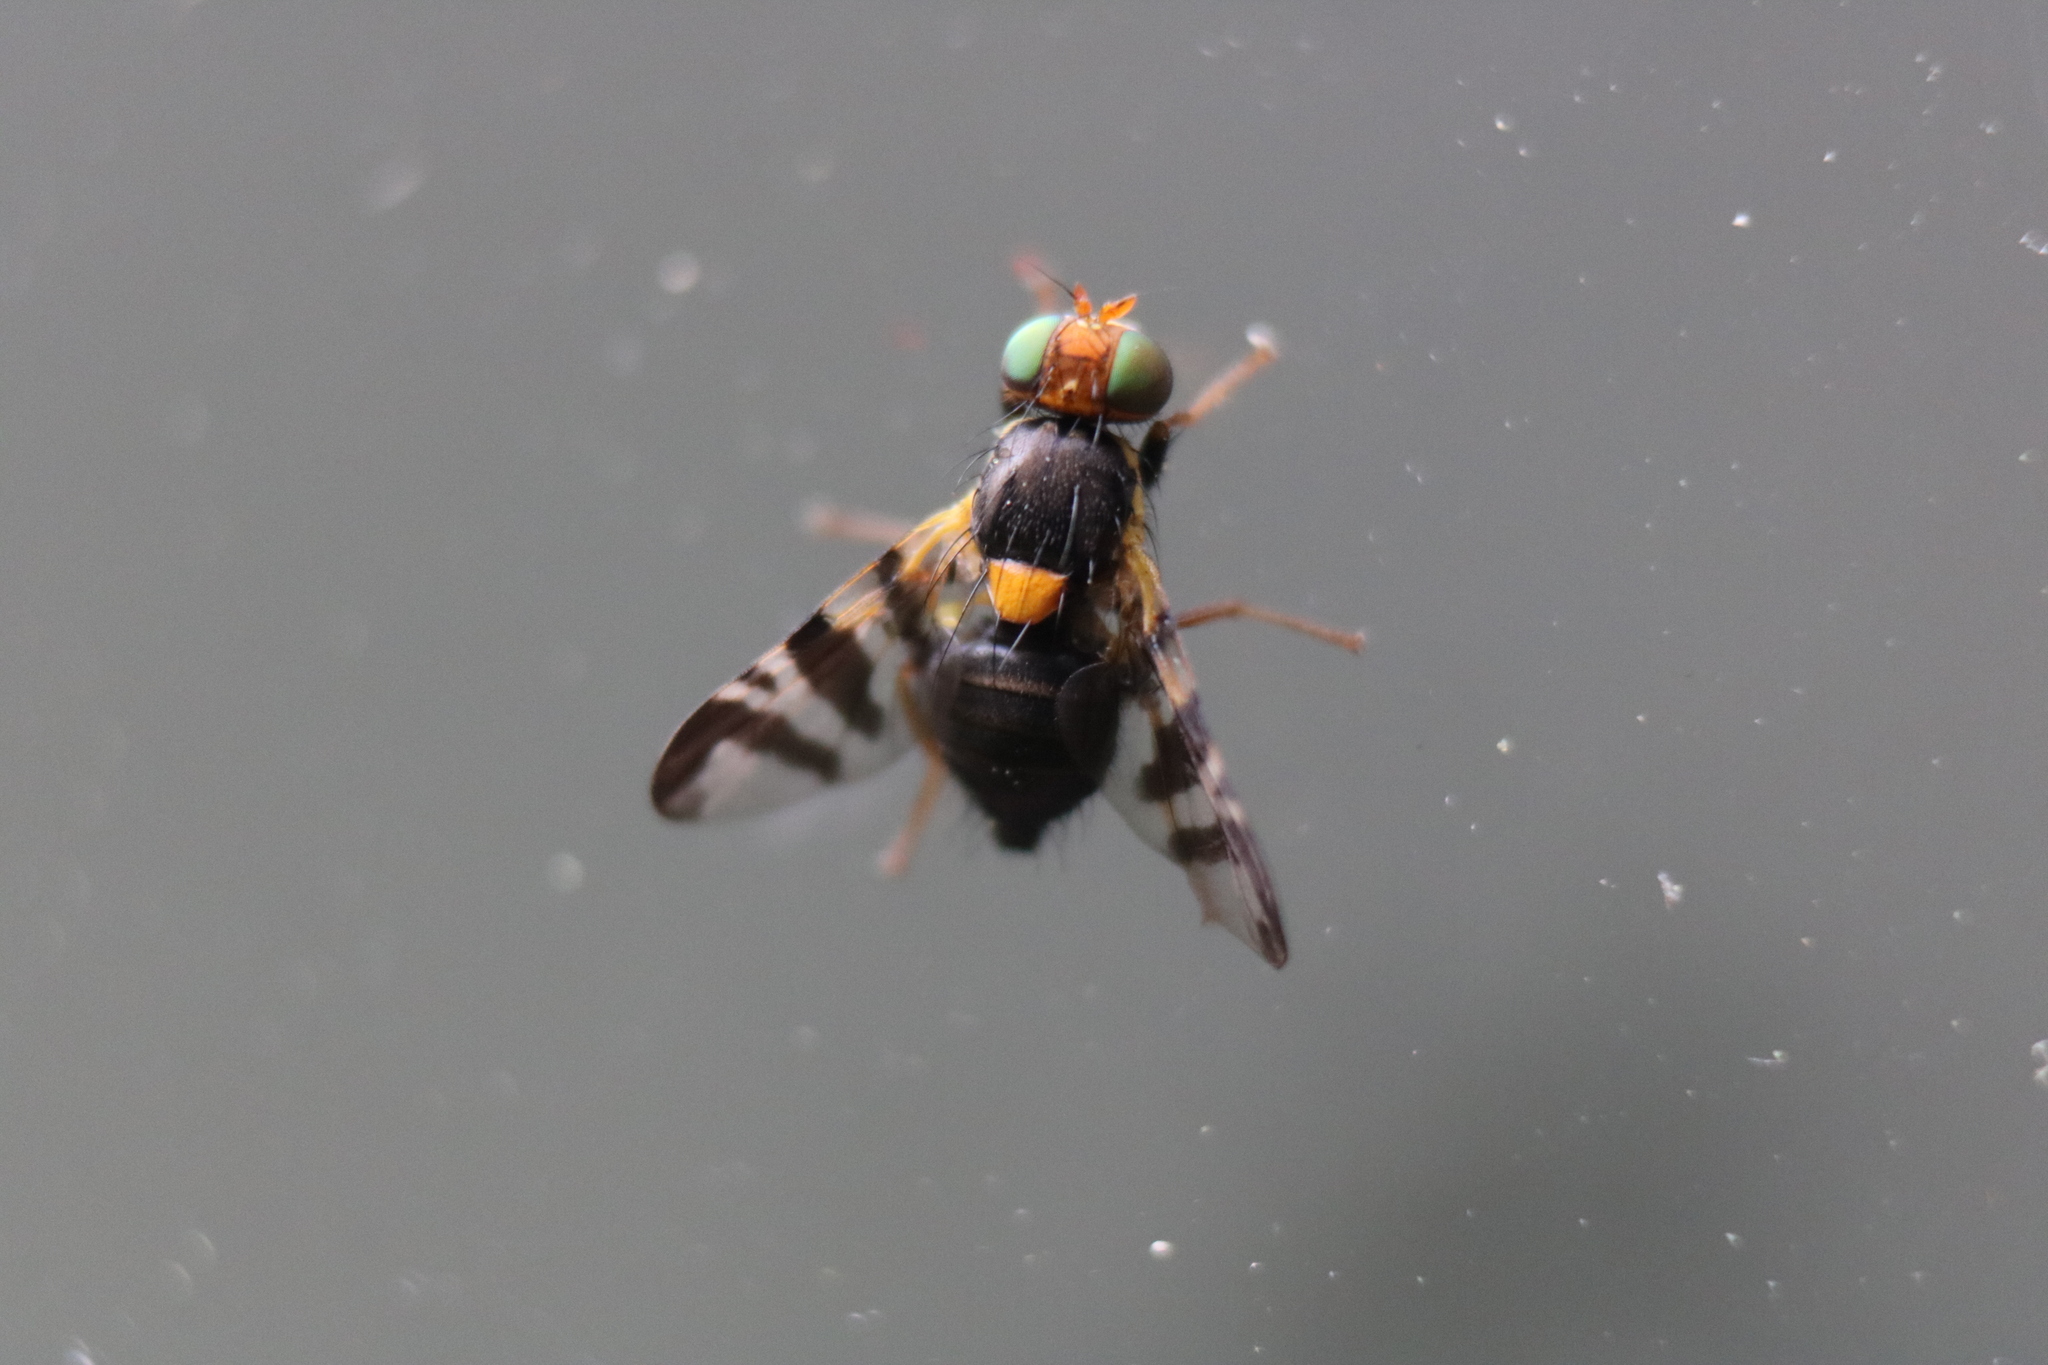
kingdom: Animalia
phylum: Arthropoda
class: Insecta
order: Diptera
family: Tephritidae
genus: Rhagoletis
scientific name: Rhagoletis cerasi
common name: European cherry fruit fly
